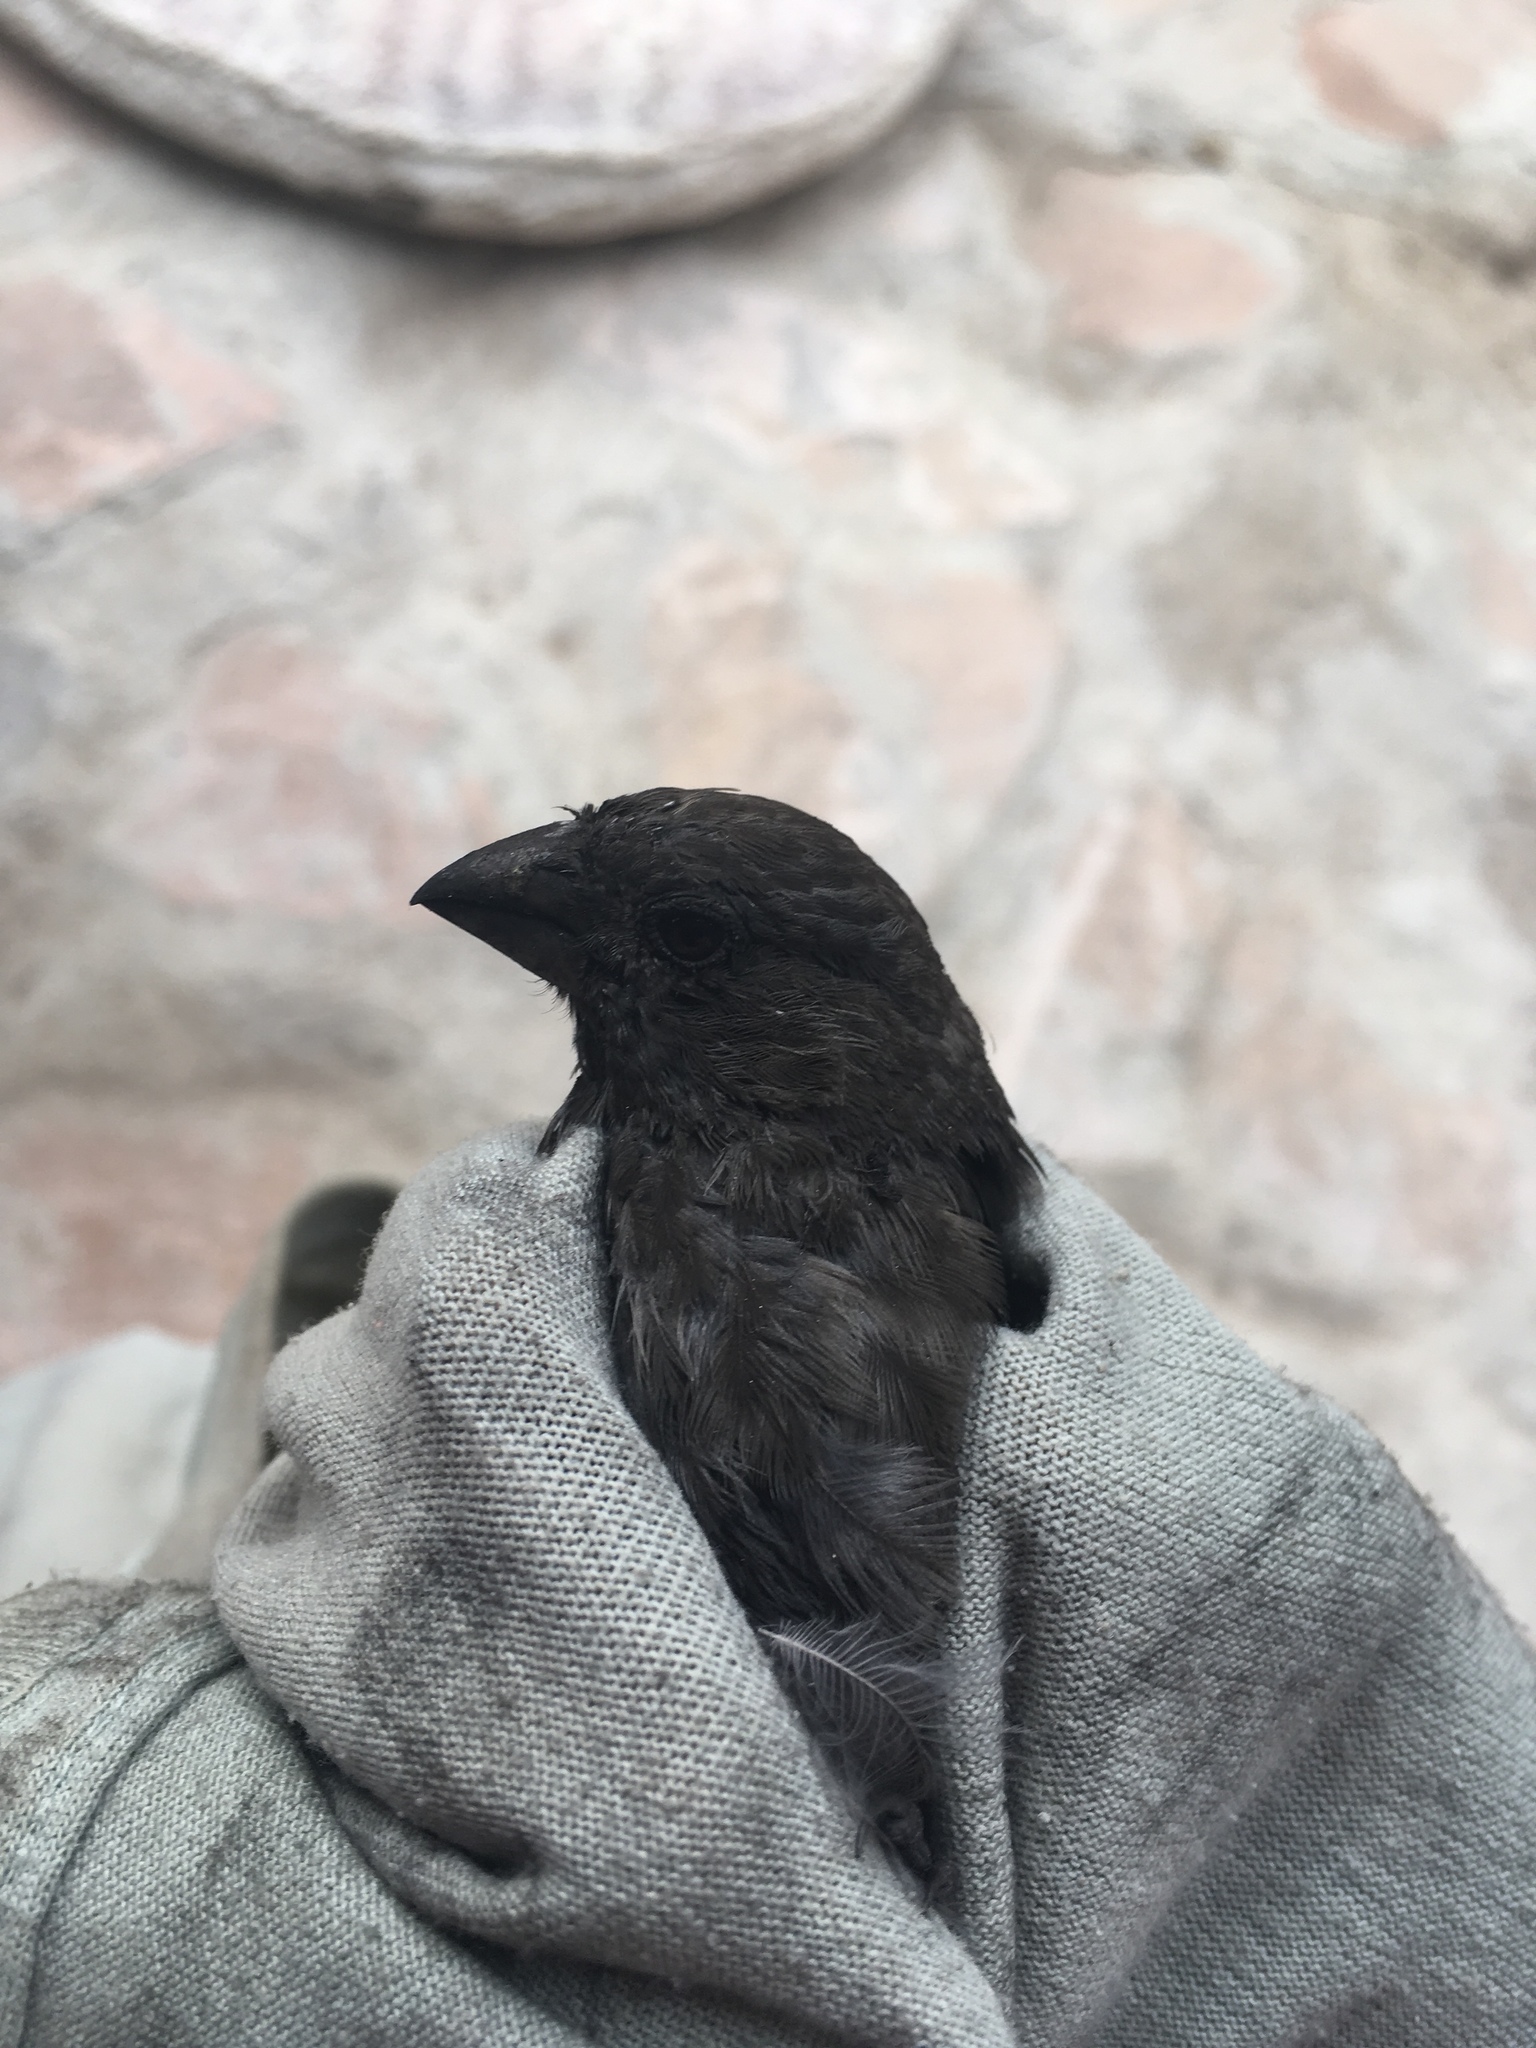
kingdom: Animalia
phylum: Chordata
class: Aves
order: Passeriformes
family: Fringillidae
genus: Haemorhous
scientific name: Haemorhous mexicanus
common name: House finch
